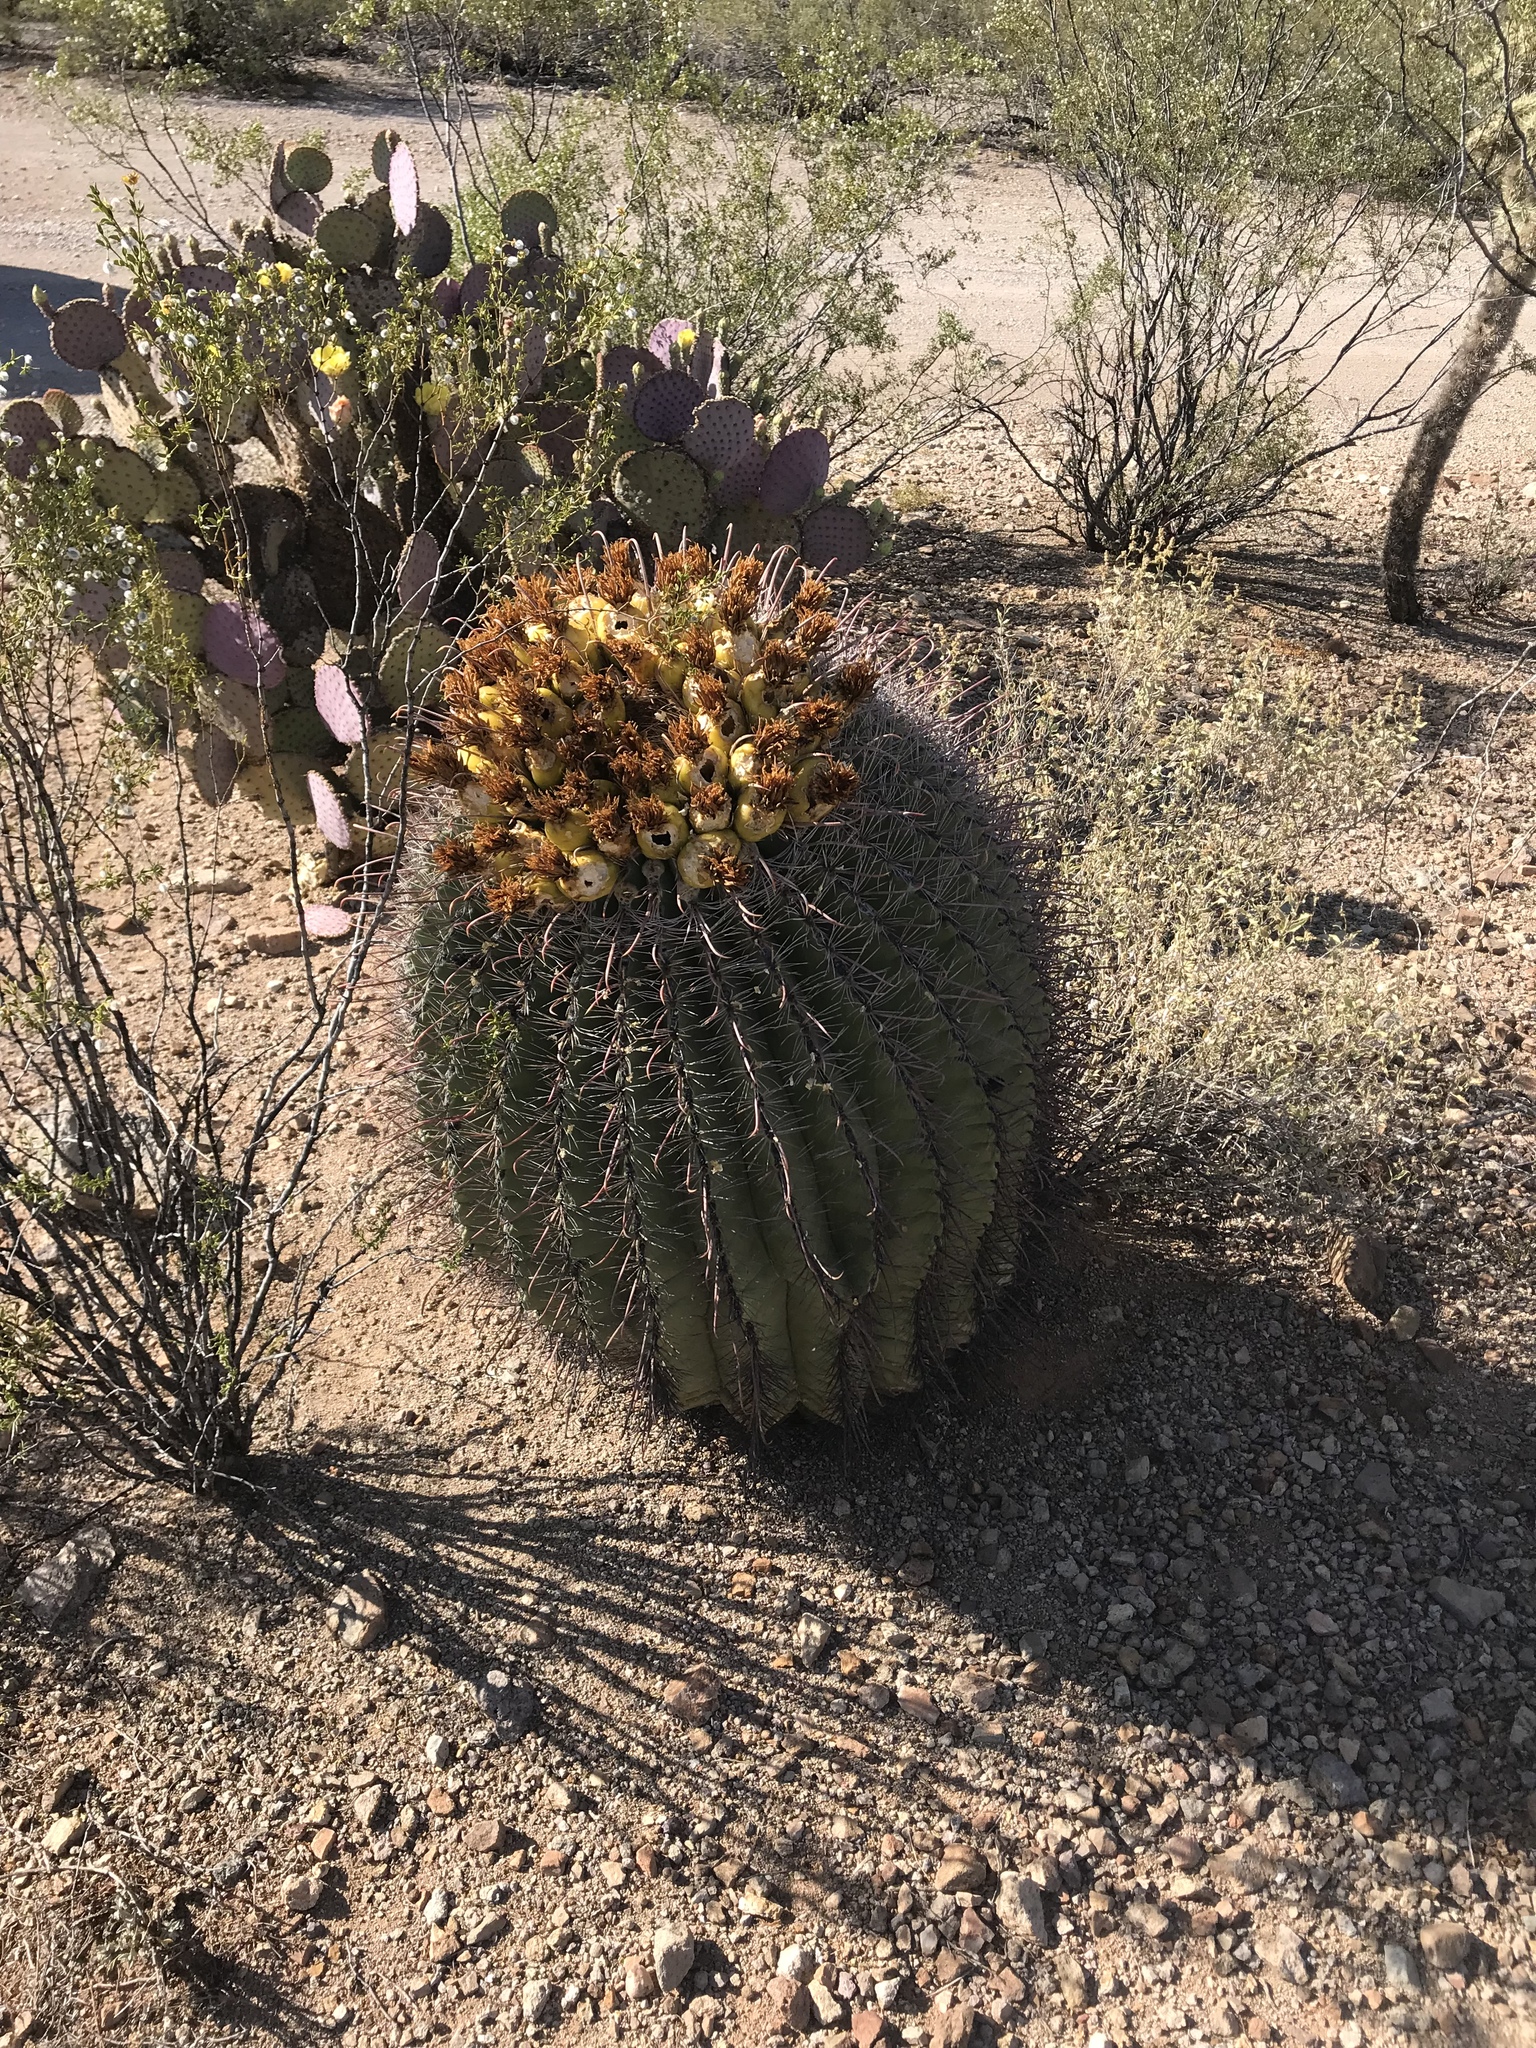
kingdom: Plantae
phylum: Tracheophyta
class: Magnoliopsida
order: Caryophyllales
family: Cactaceae
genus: Ferocactus
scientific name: Ferocactus wislizeni
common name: Candy barrel cactus
